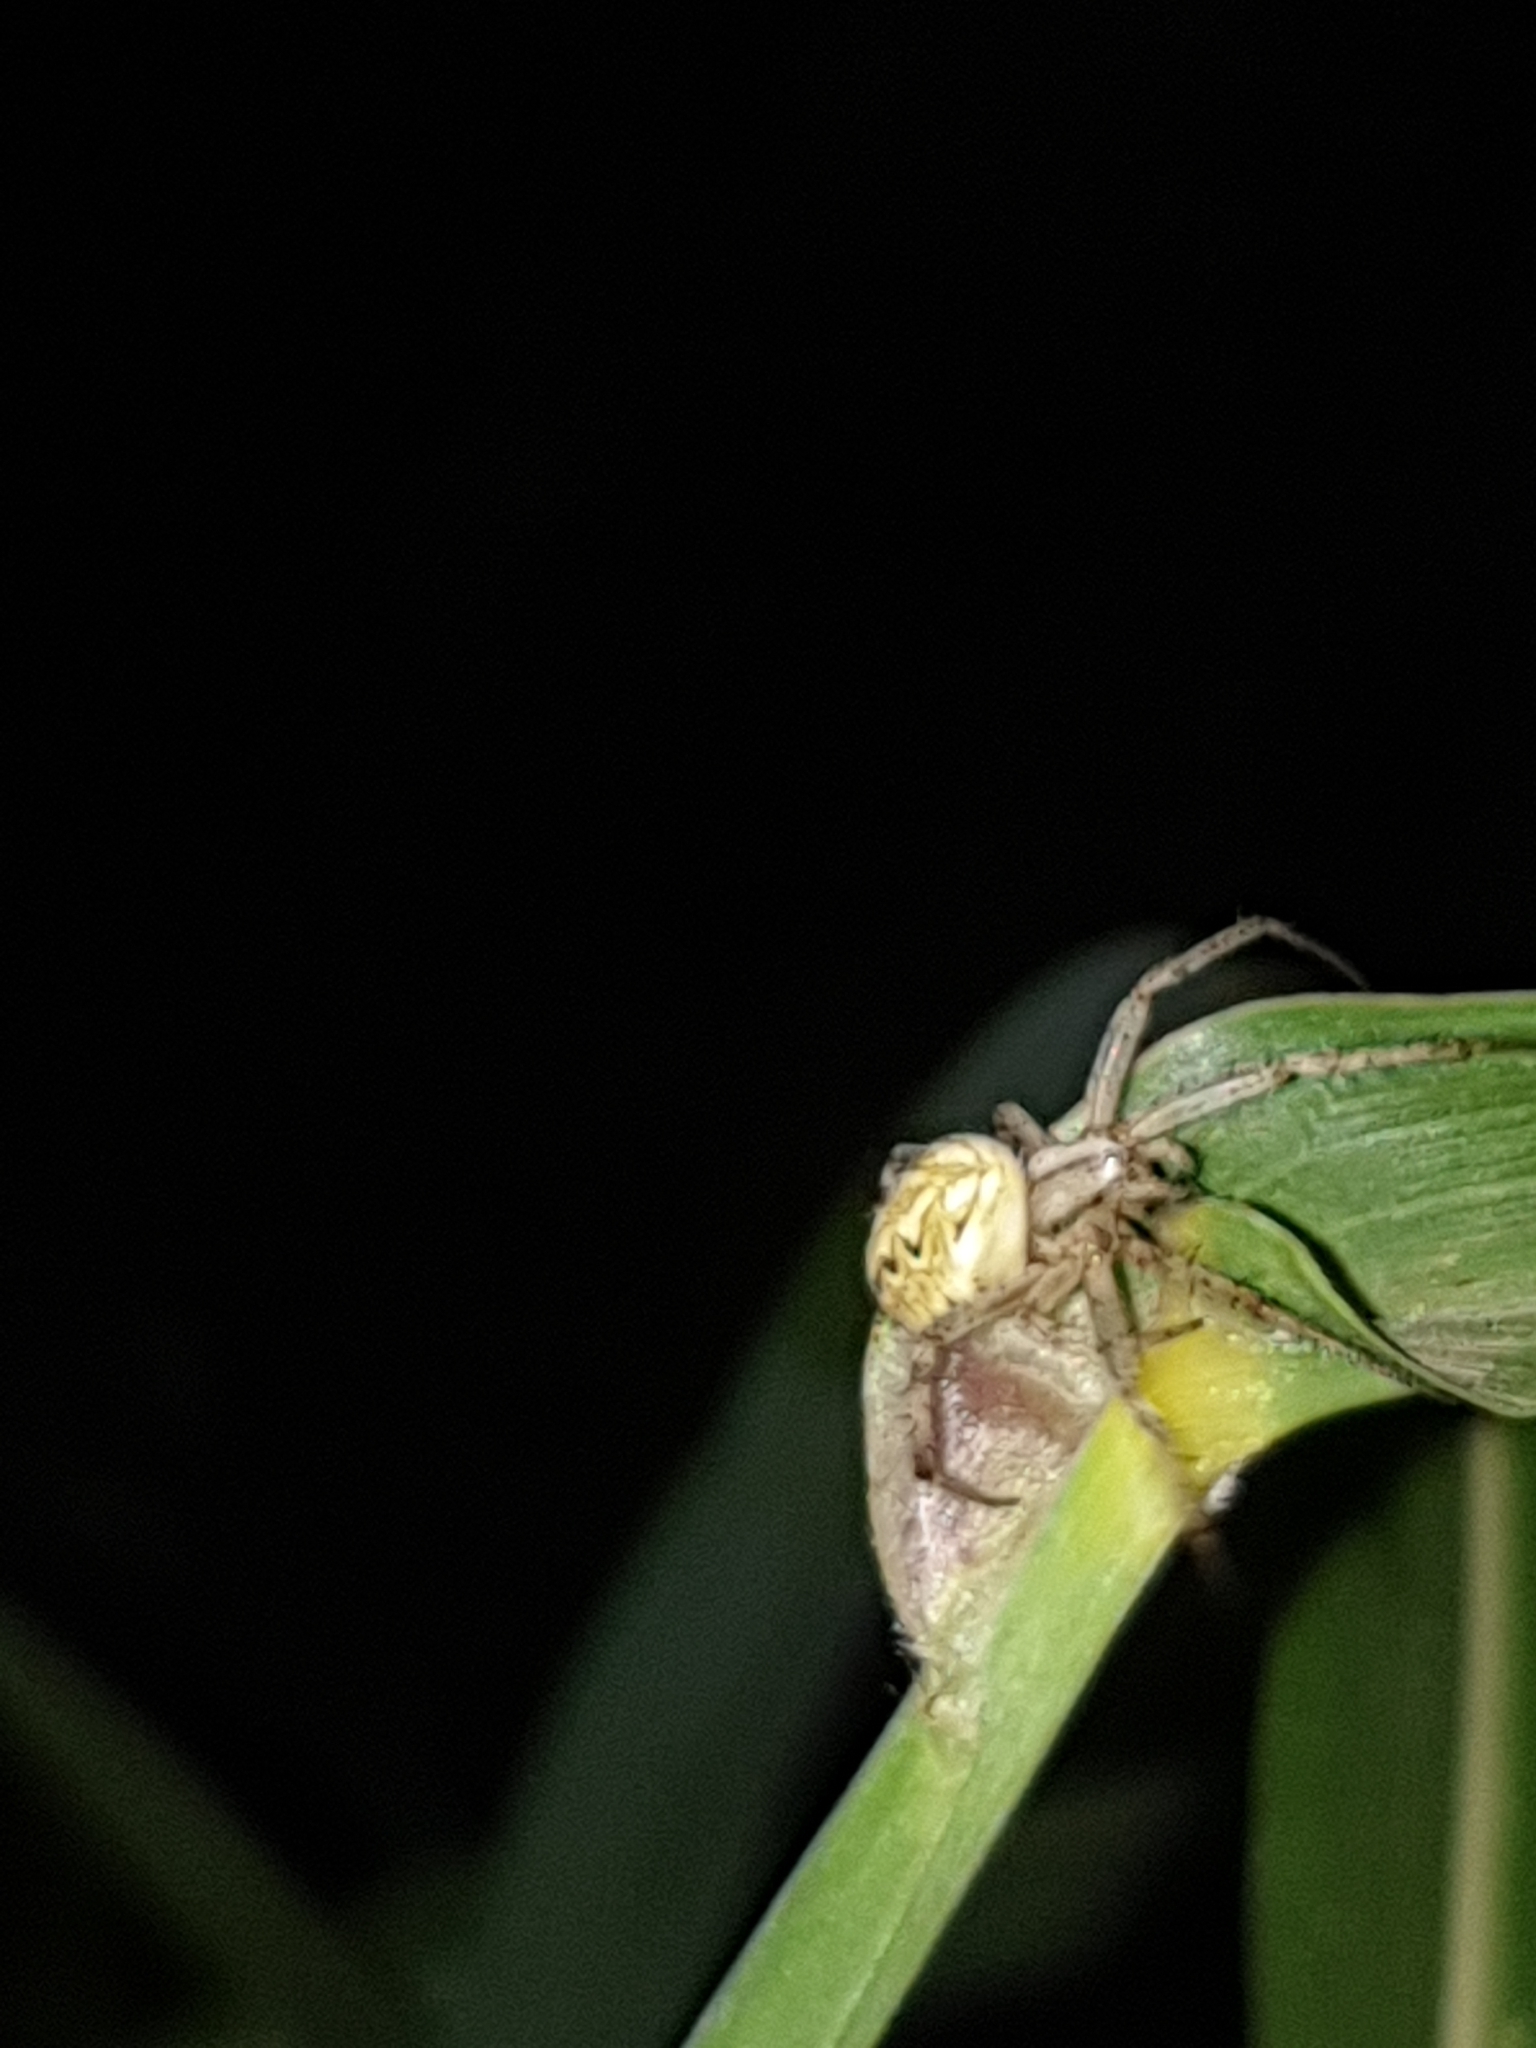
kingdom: Animalia
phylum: Arthropoda
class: Arachnida
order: Araneae
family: Araneidae
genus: Neoscona
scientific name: Neoscona adianta
